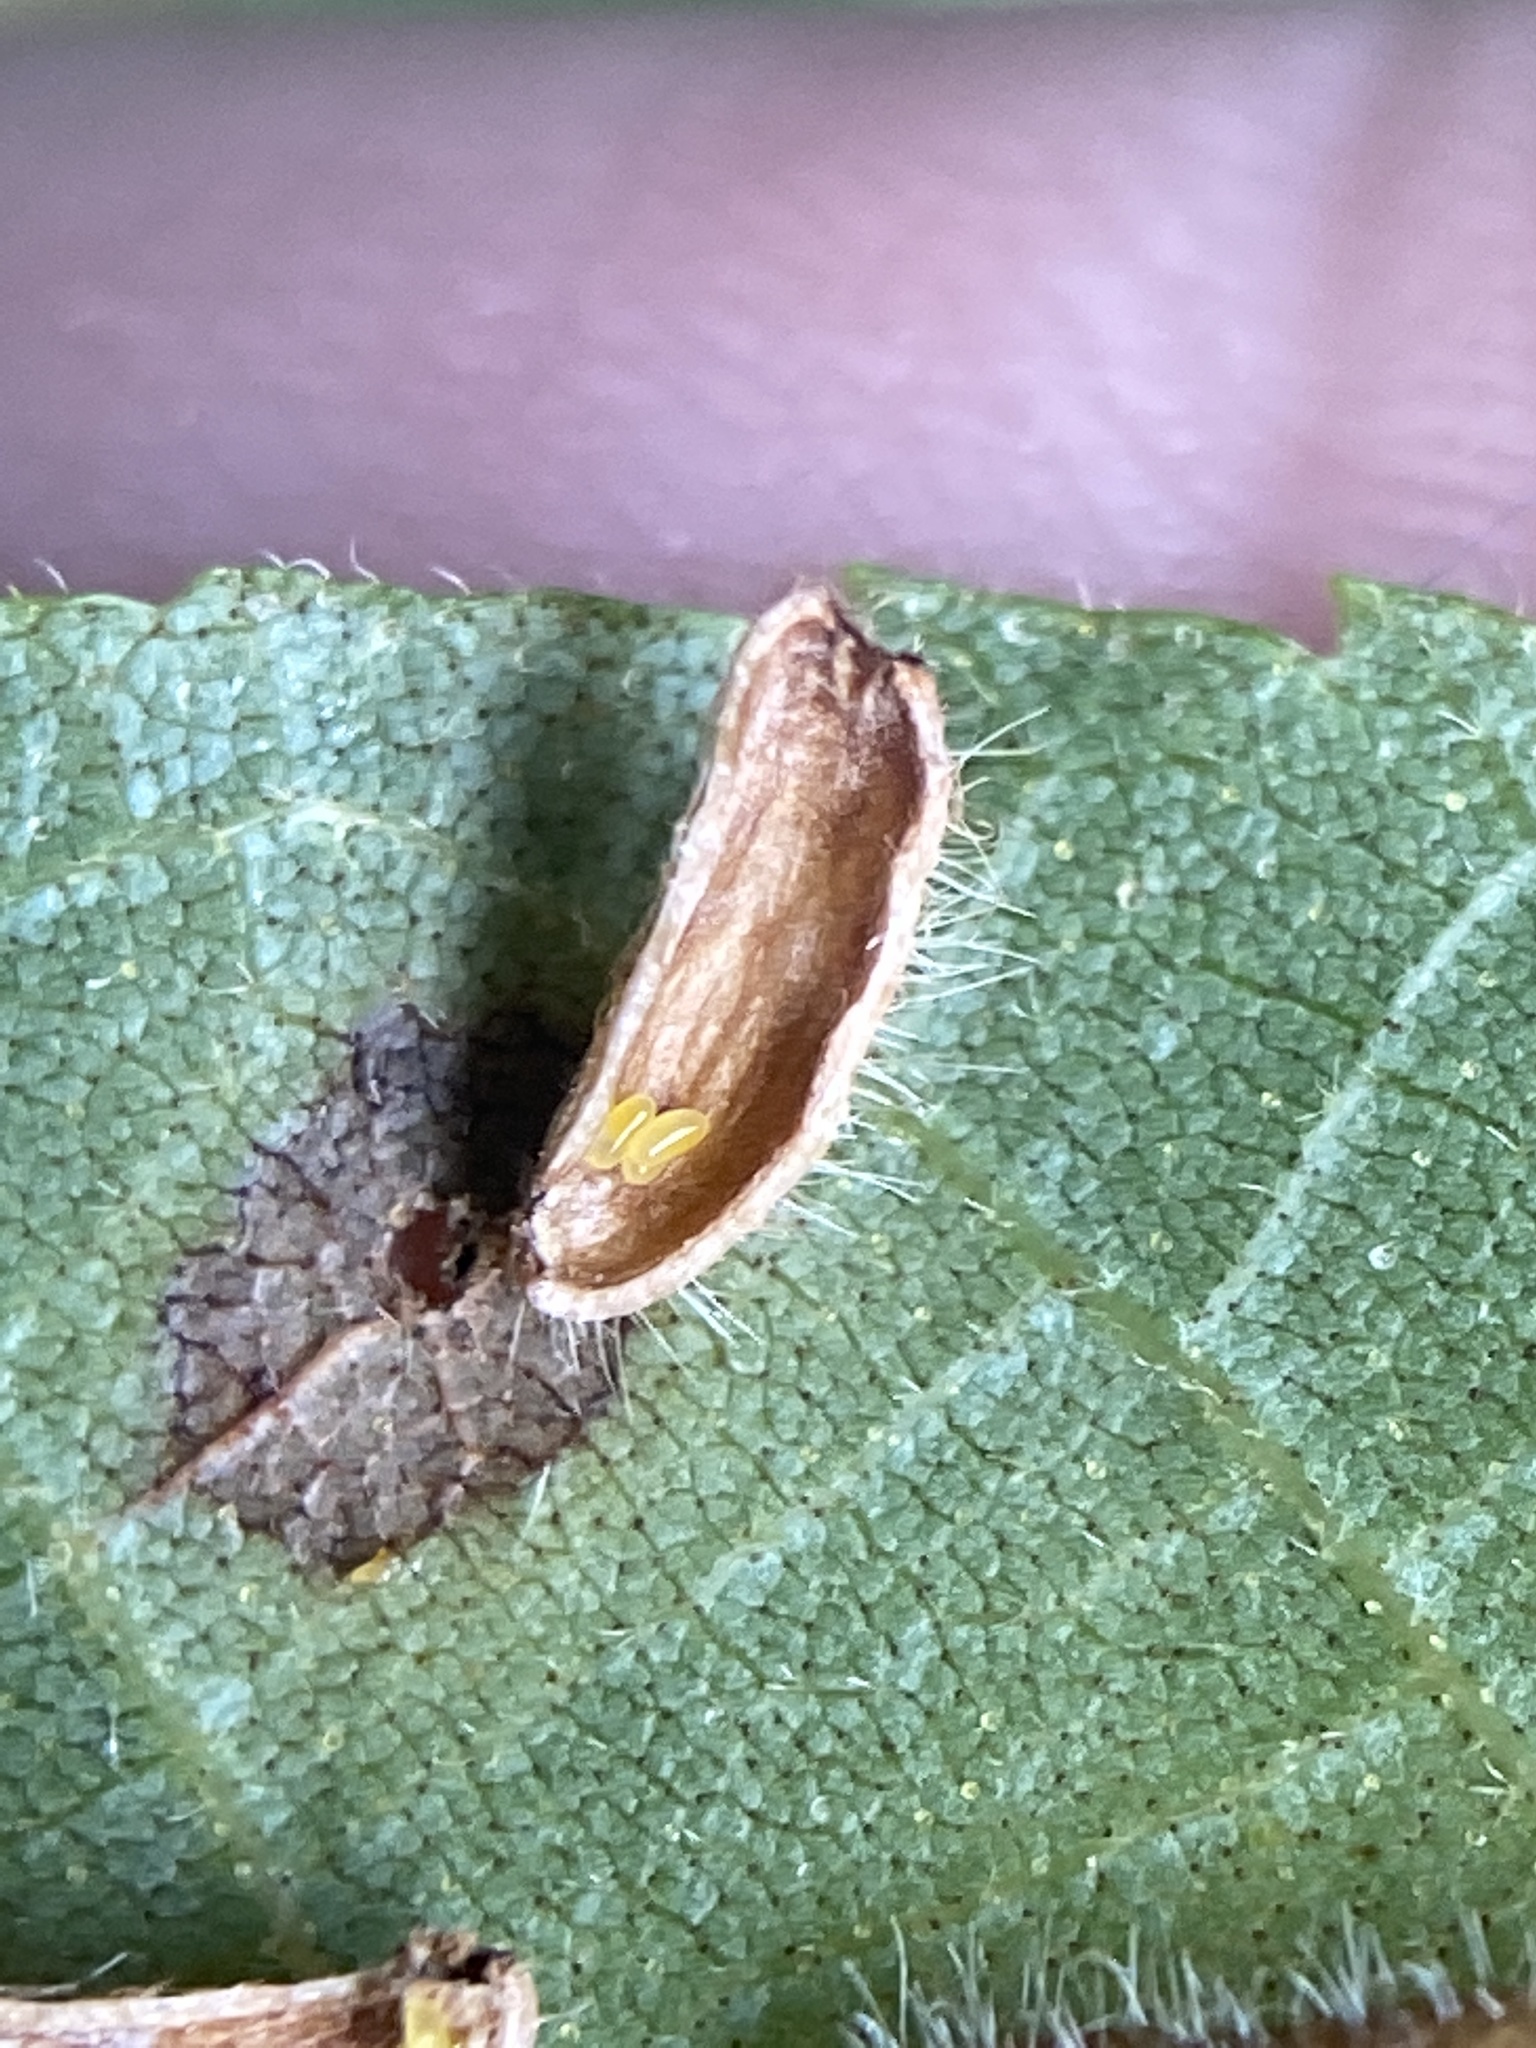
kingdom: Animalia
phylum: Arthropoda
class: Insecta
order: Diptera
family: Cecidomyiidae
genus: Contarinia
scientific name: Contarinia cucumata
